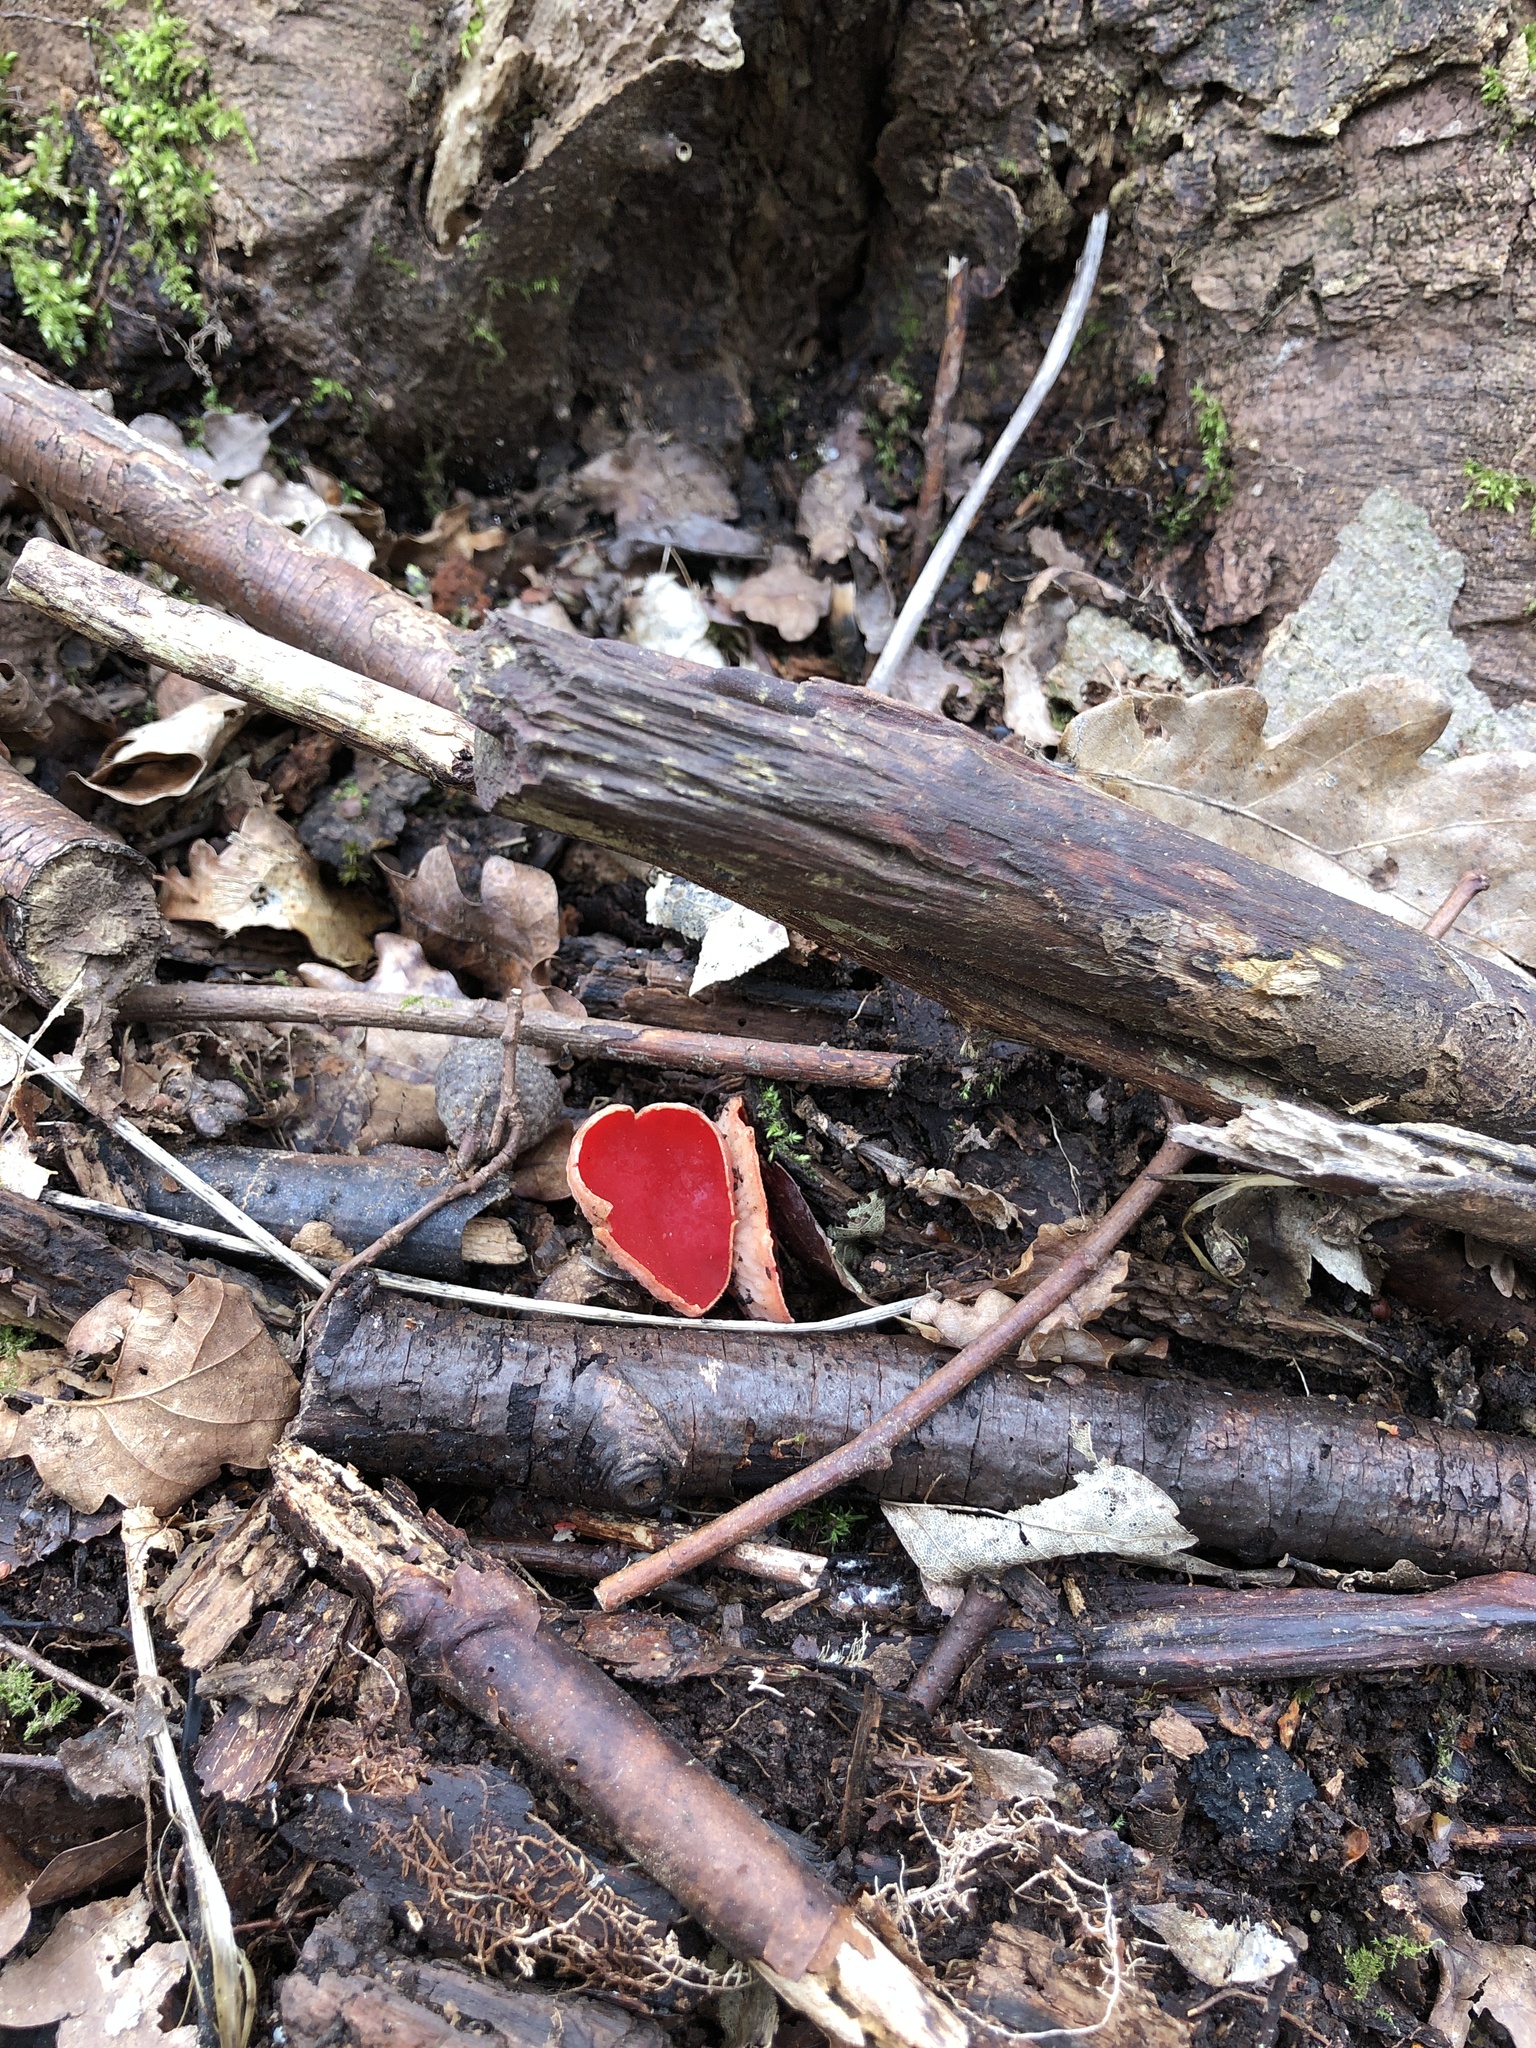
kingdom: Fungi
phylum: Ascomycota
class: Pezizomycetes
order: Pezizales
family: Sarcoscyphaceae
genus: Sarcoscypha
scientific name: Sarcoscypha
